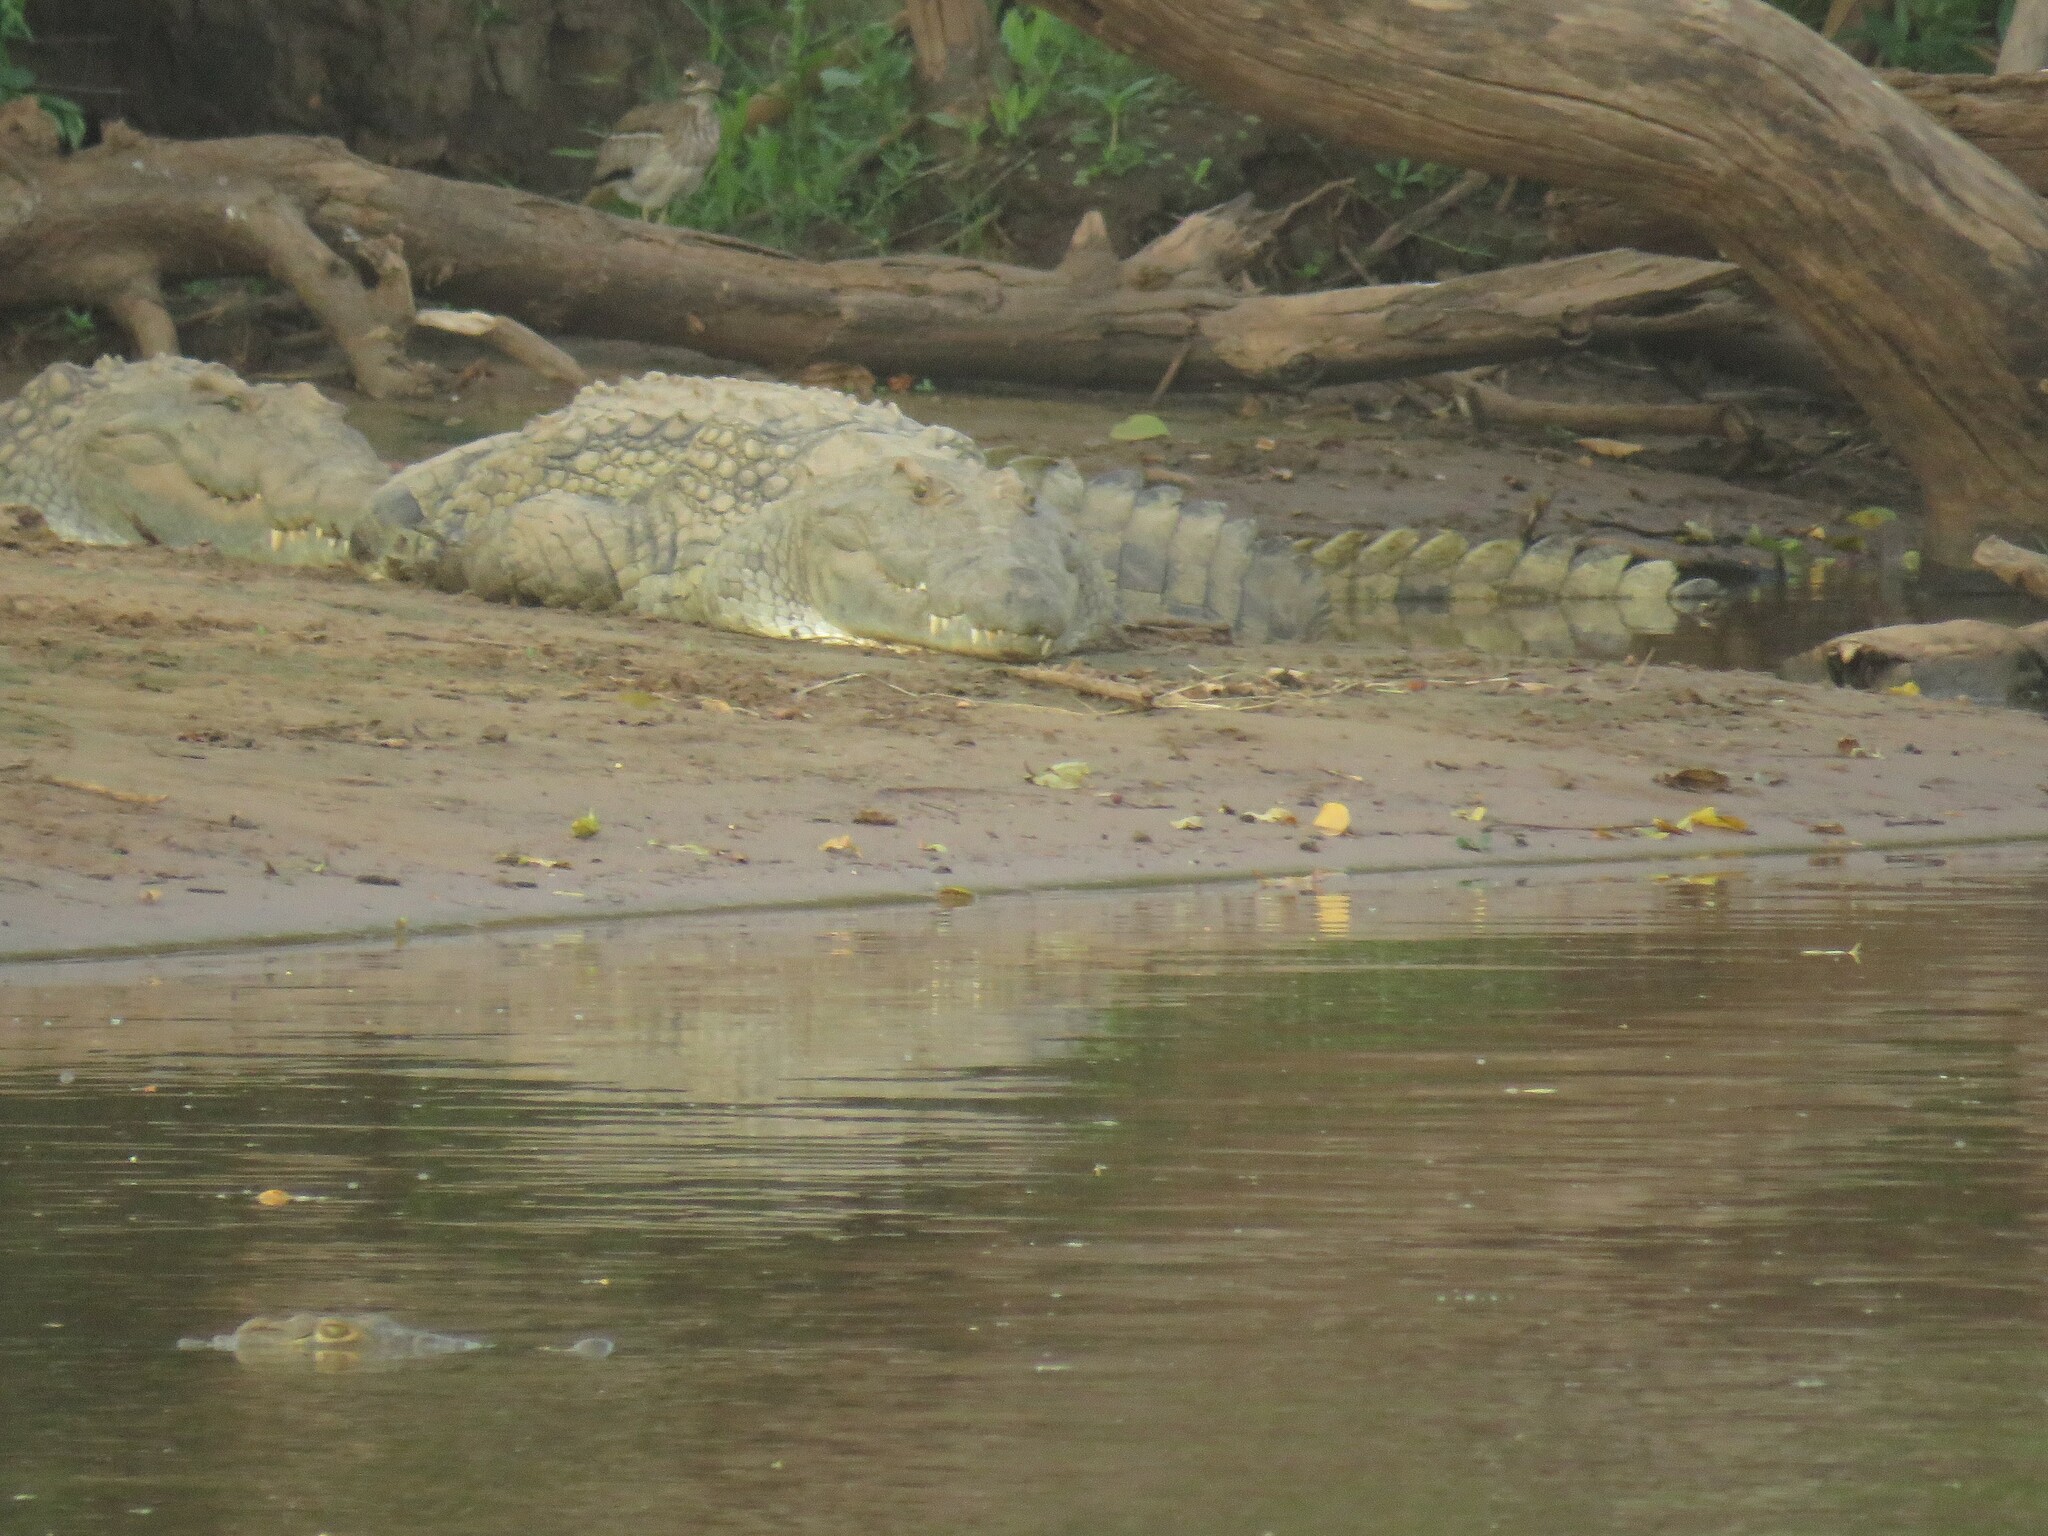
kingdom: Animalia
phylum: Chordata
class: Crocodylia
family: Crocodylidae
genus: Crocodylus
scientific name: Crocodylus niloticus
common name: Nile crocodile
